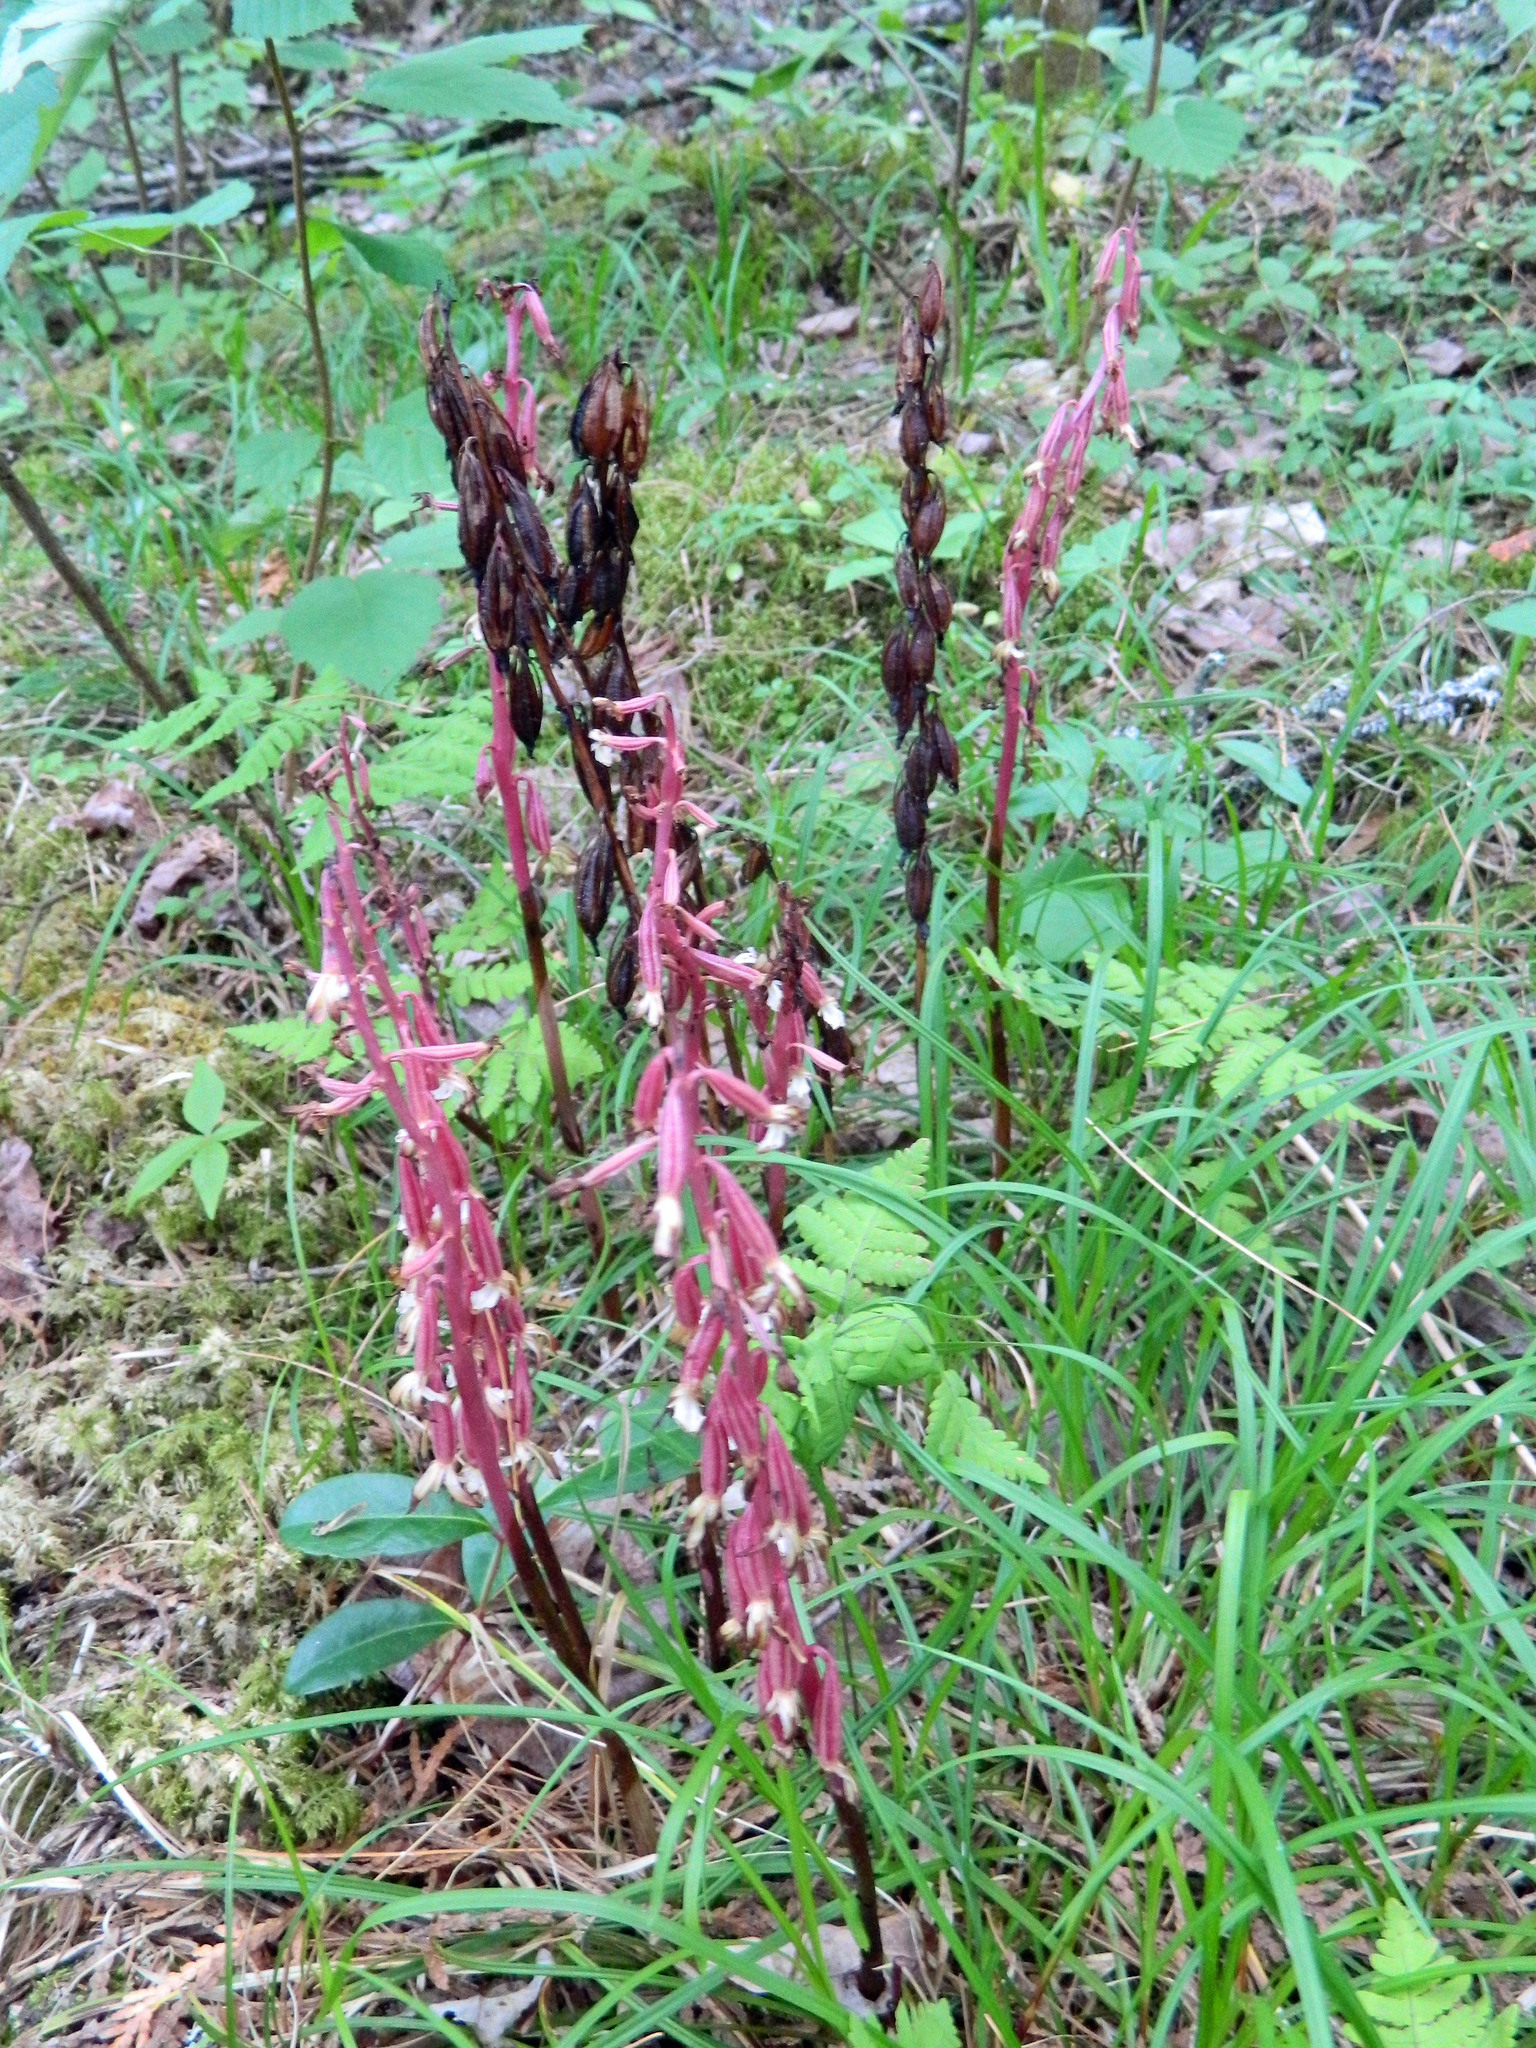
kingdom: Plantae
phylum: Tracheophyta
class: Liliopsida
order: Asparagales
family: Orchidaceae
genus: Corallorhiza
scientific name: Corallorhiza maculata
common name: Spotted coralroot
